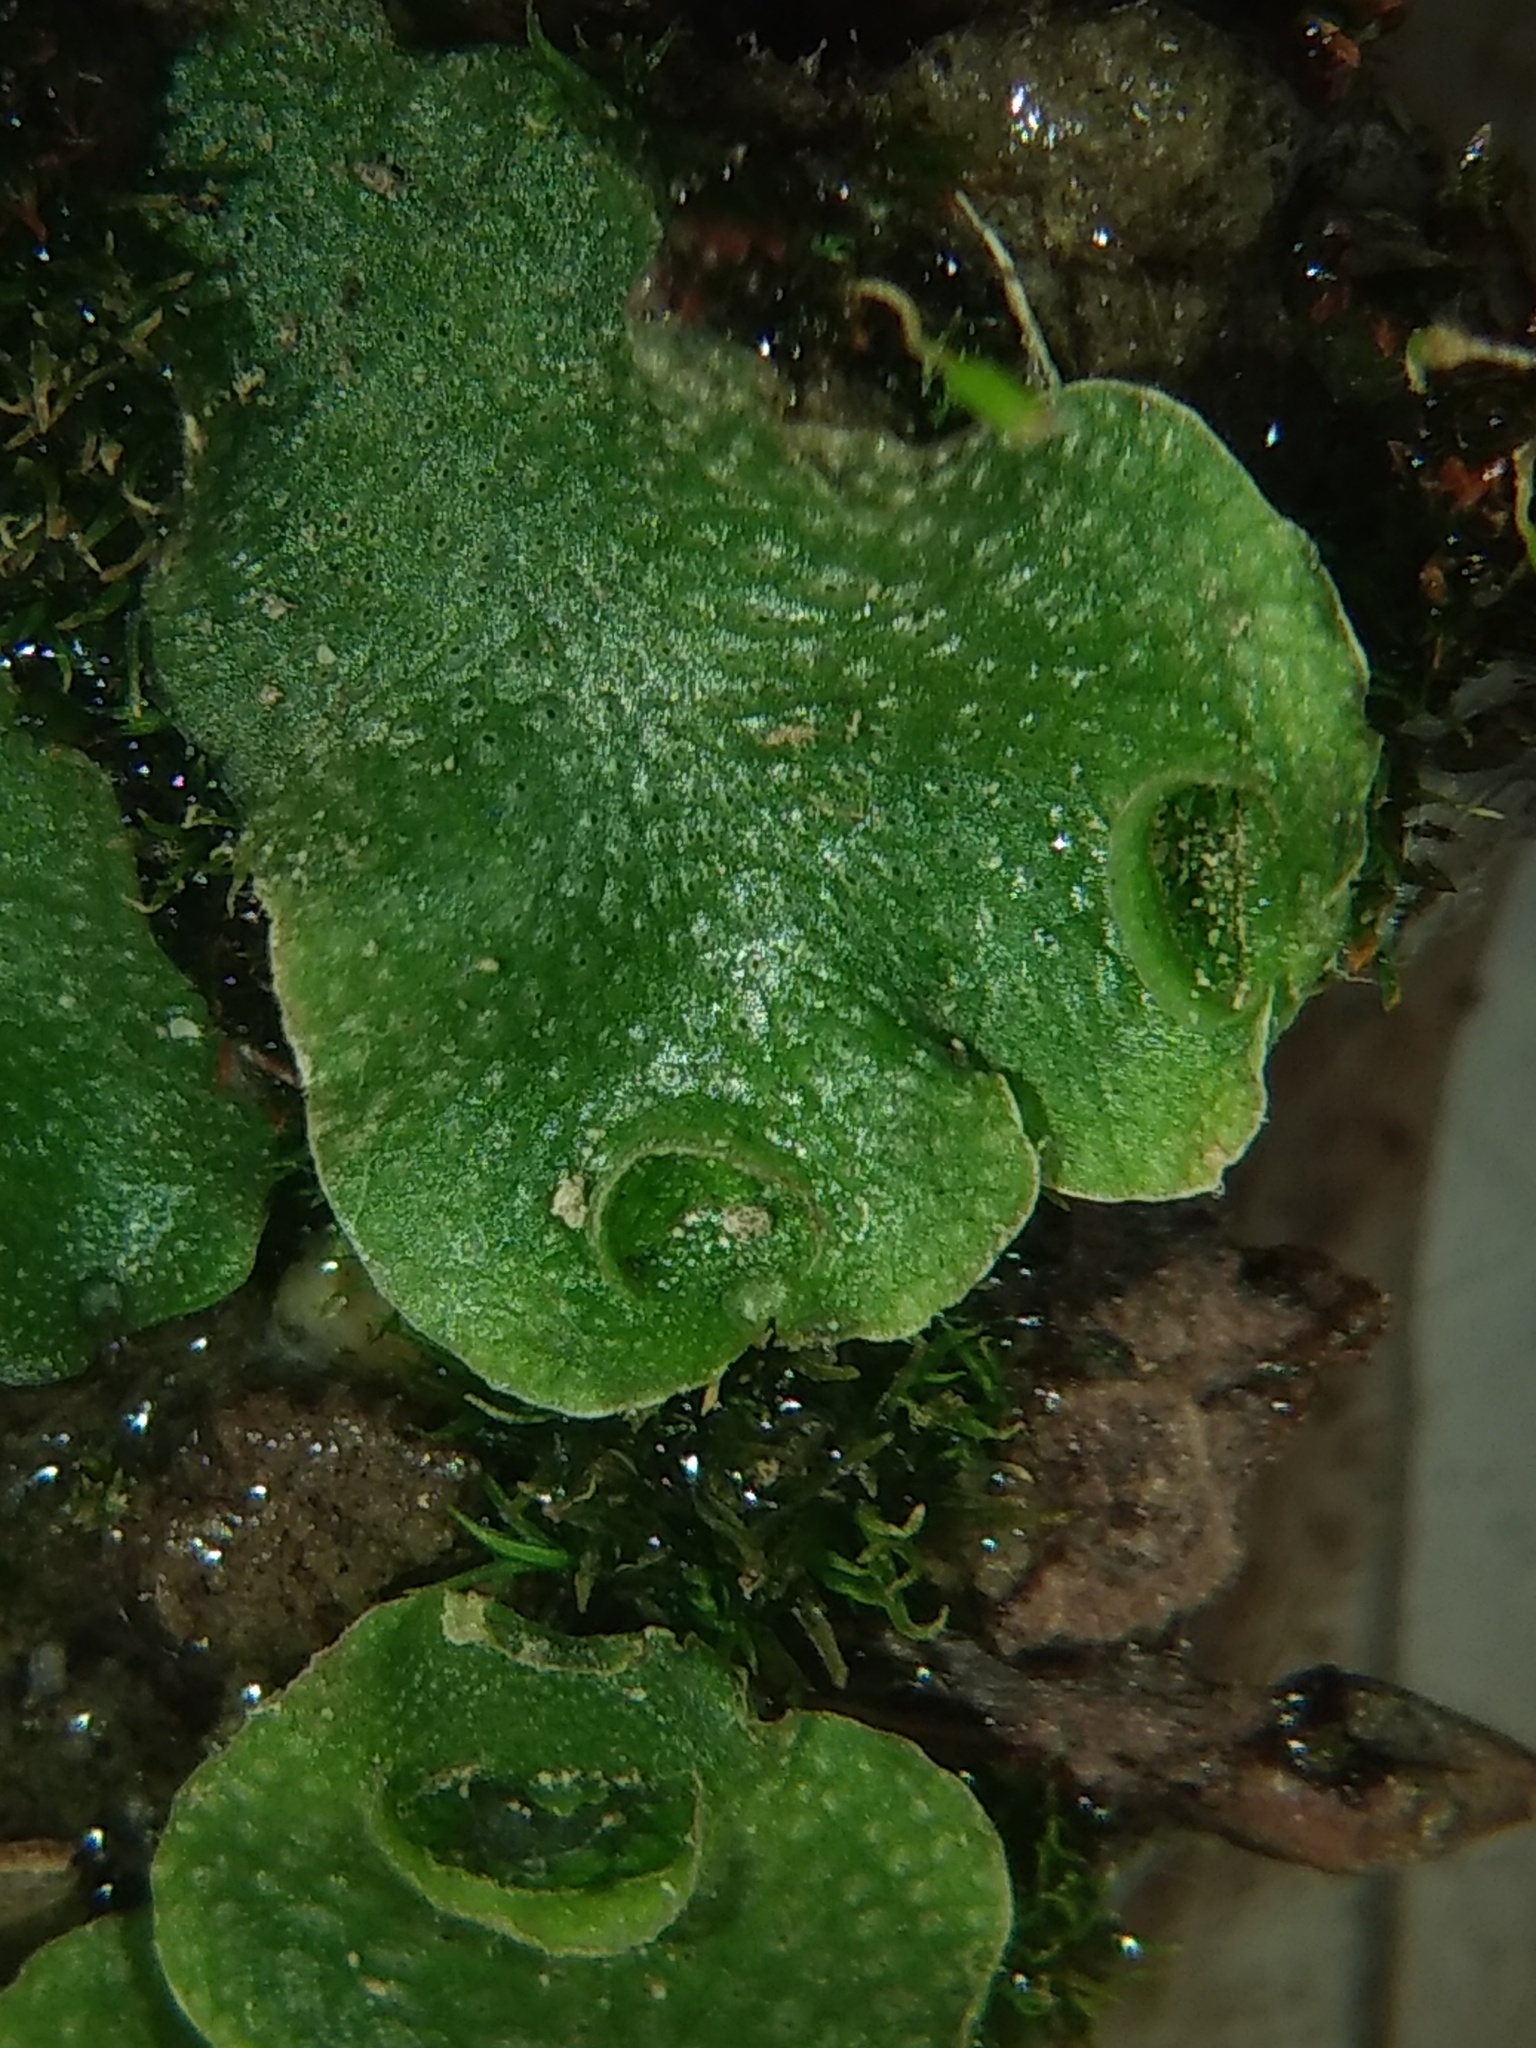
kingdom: Plantae
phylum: Marchantiophyta
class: Marchantiopsida
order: Lunulariales
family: Lunulariaceae
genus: Lunularia
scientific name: Lunularia cruciata
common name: Crescent-cup liverwort
